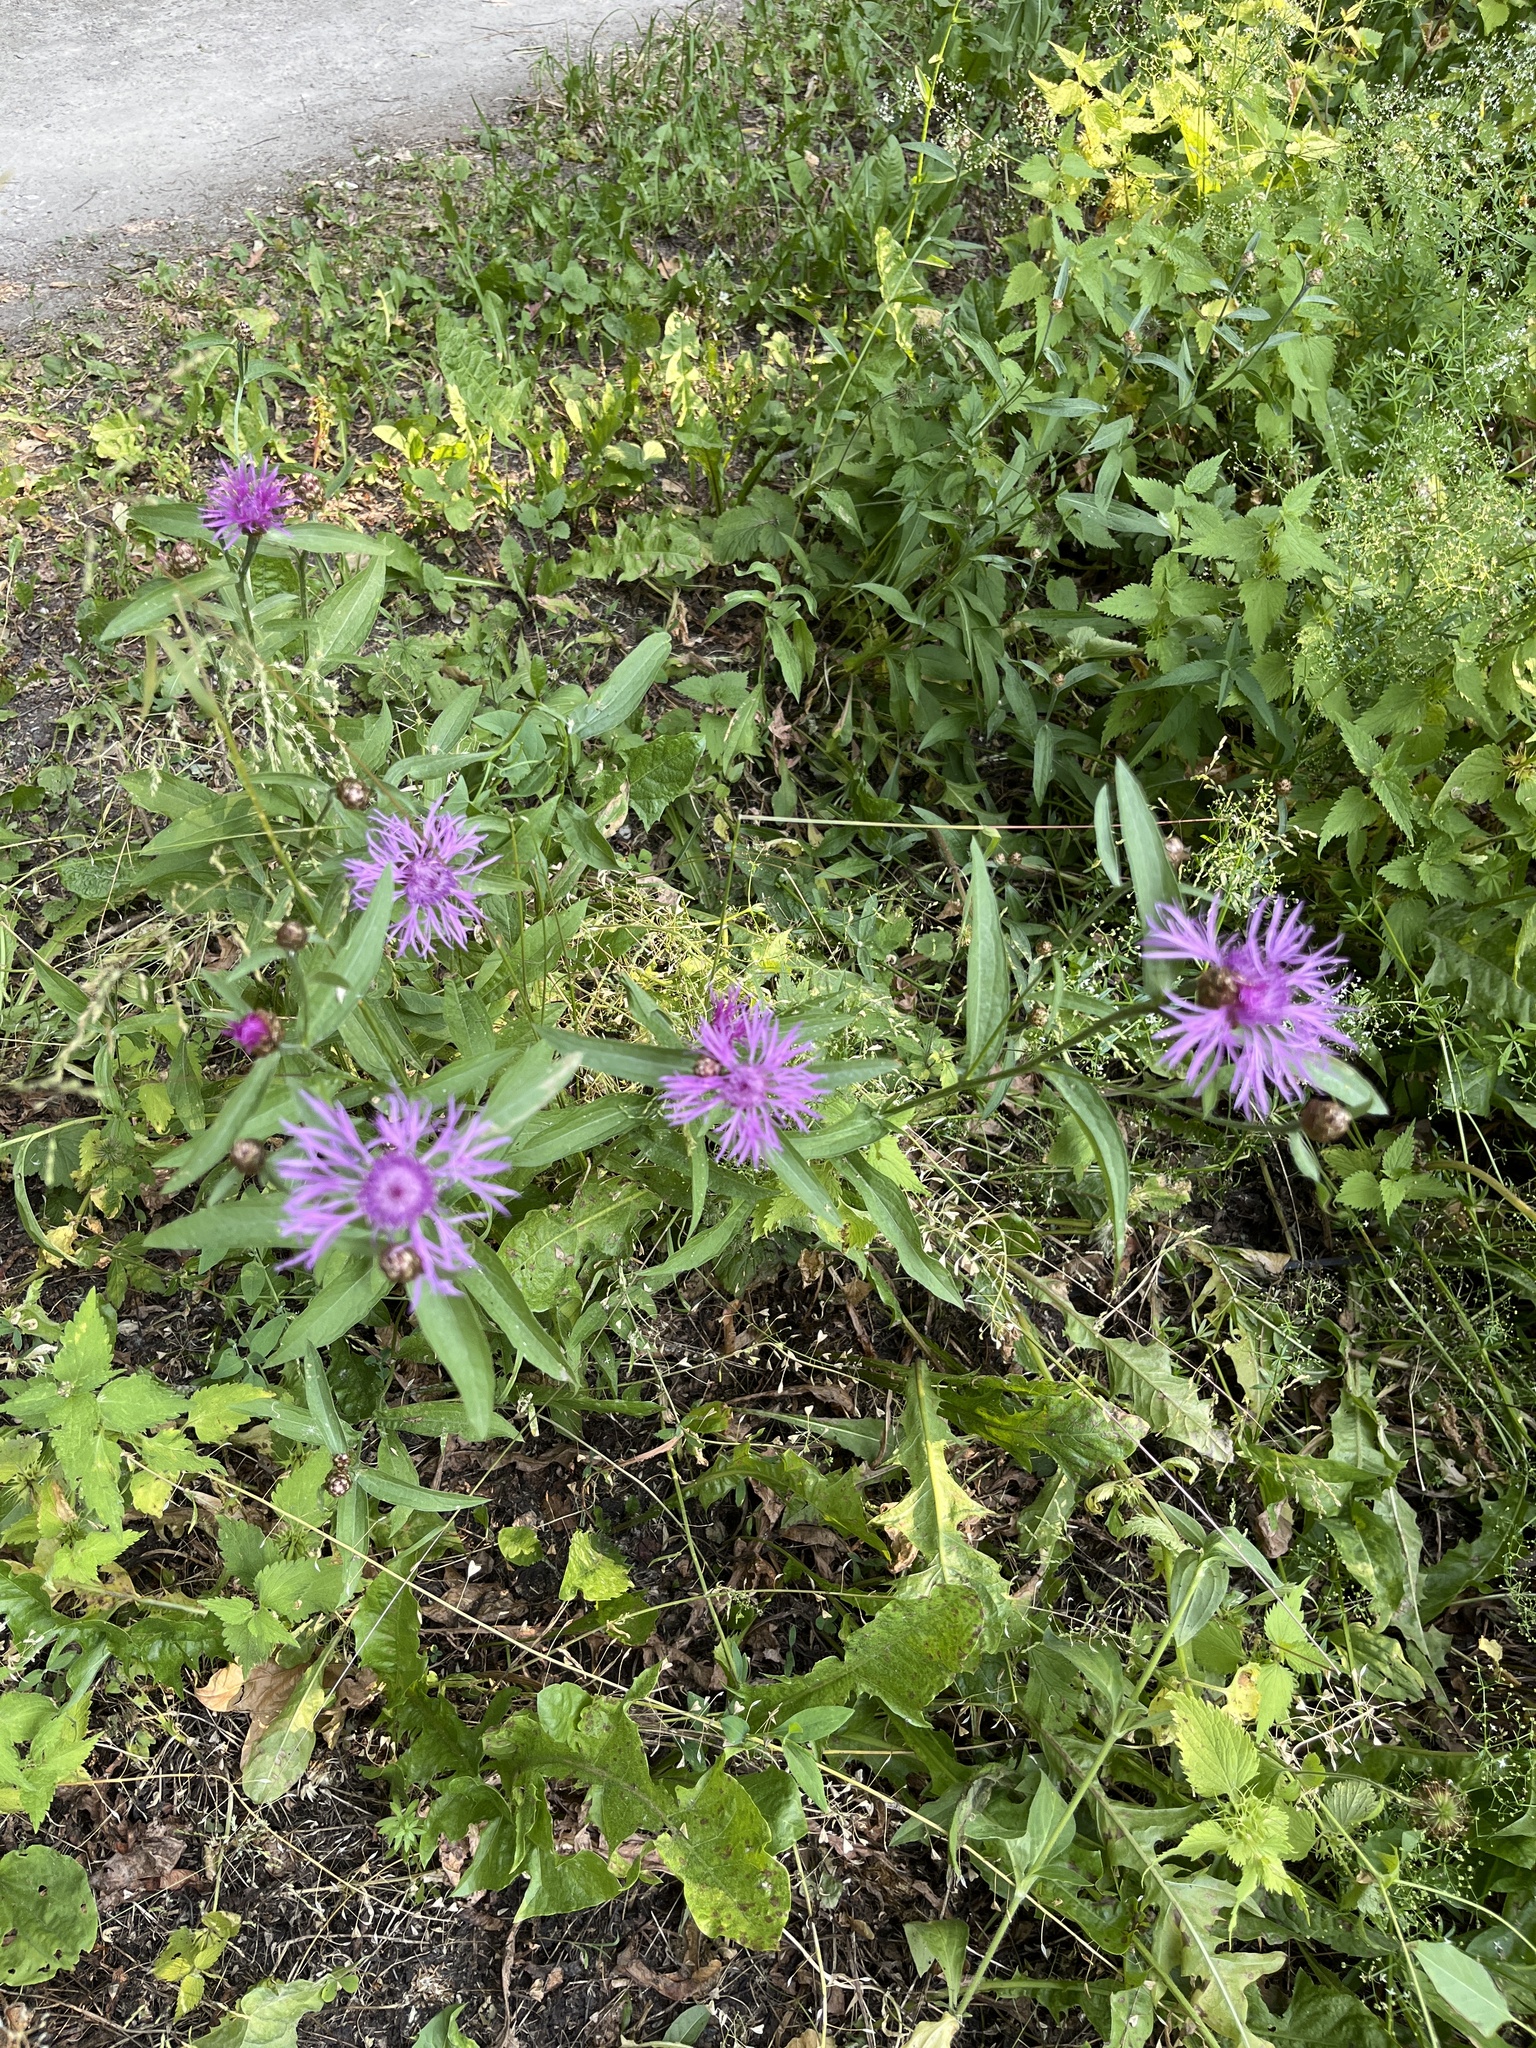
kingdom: Plantae
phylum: Tracheophyta
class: Magnoliopsida
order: Asterales
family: Asteraceae
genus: Centaurea
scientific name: Centaurea jacea
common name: Brown knapweed
